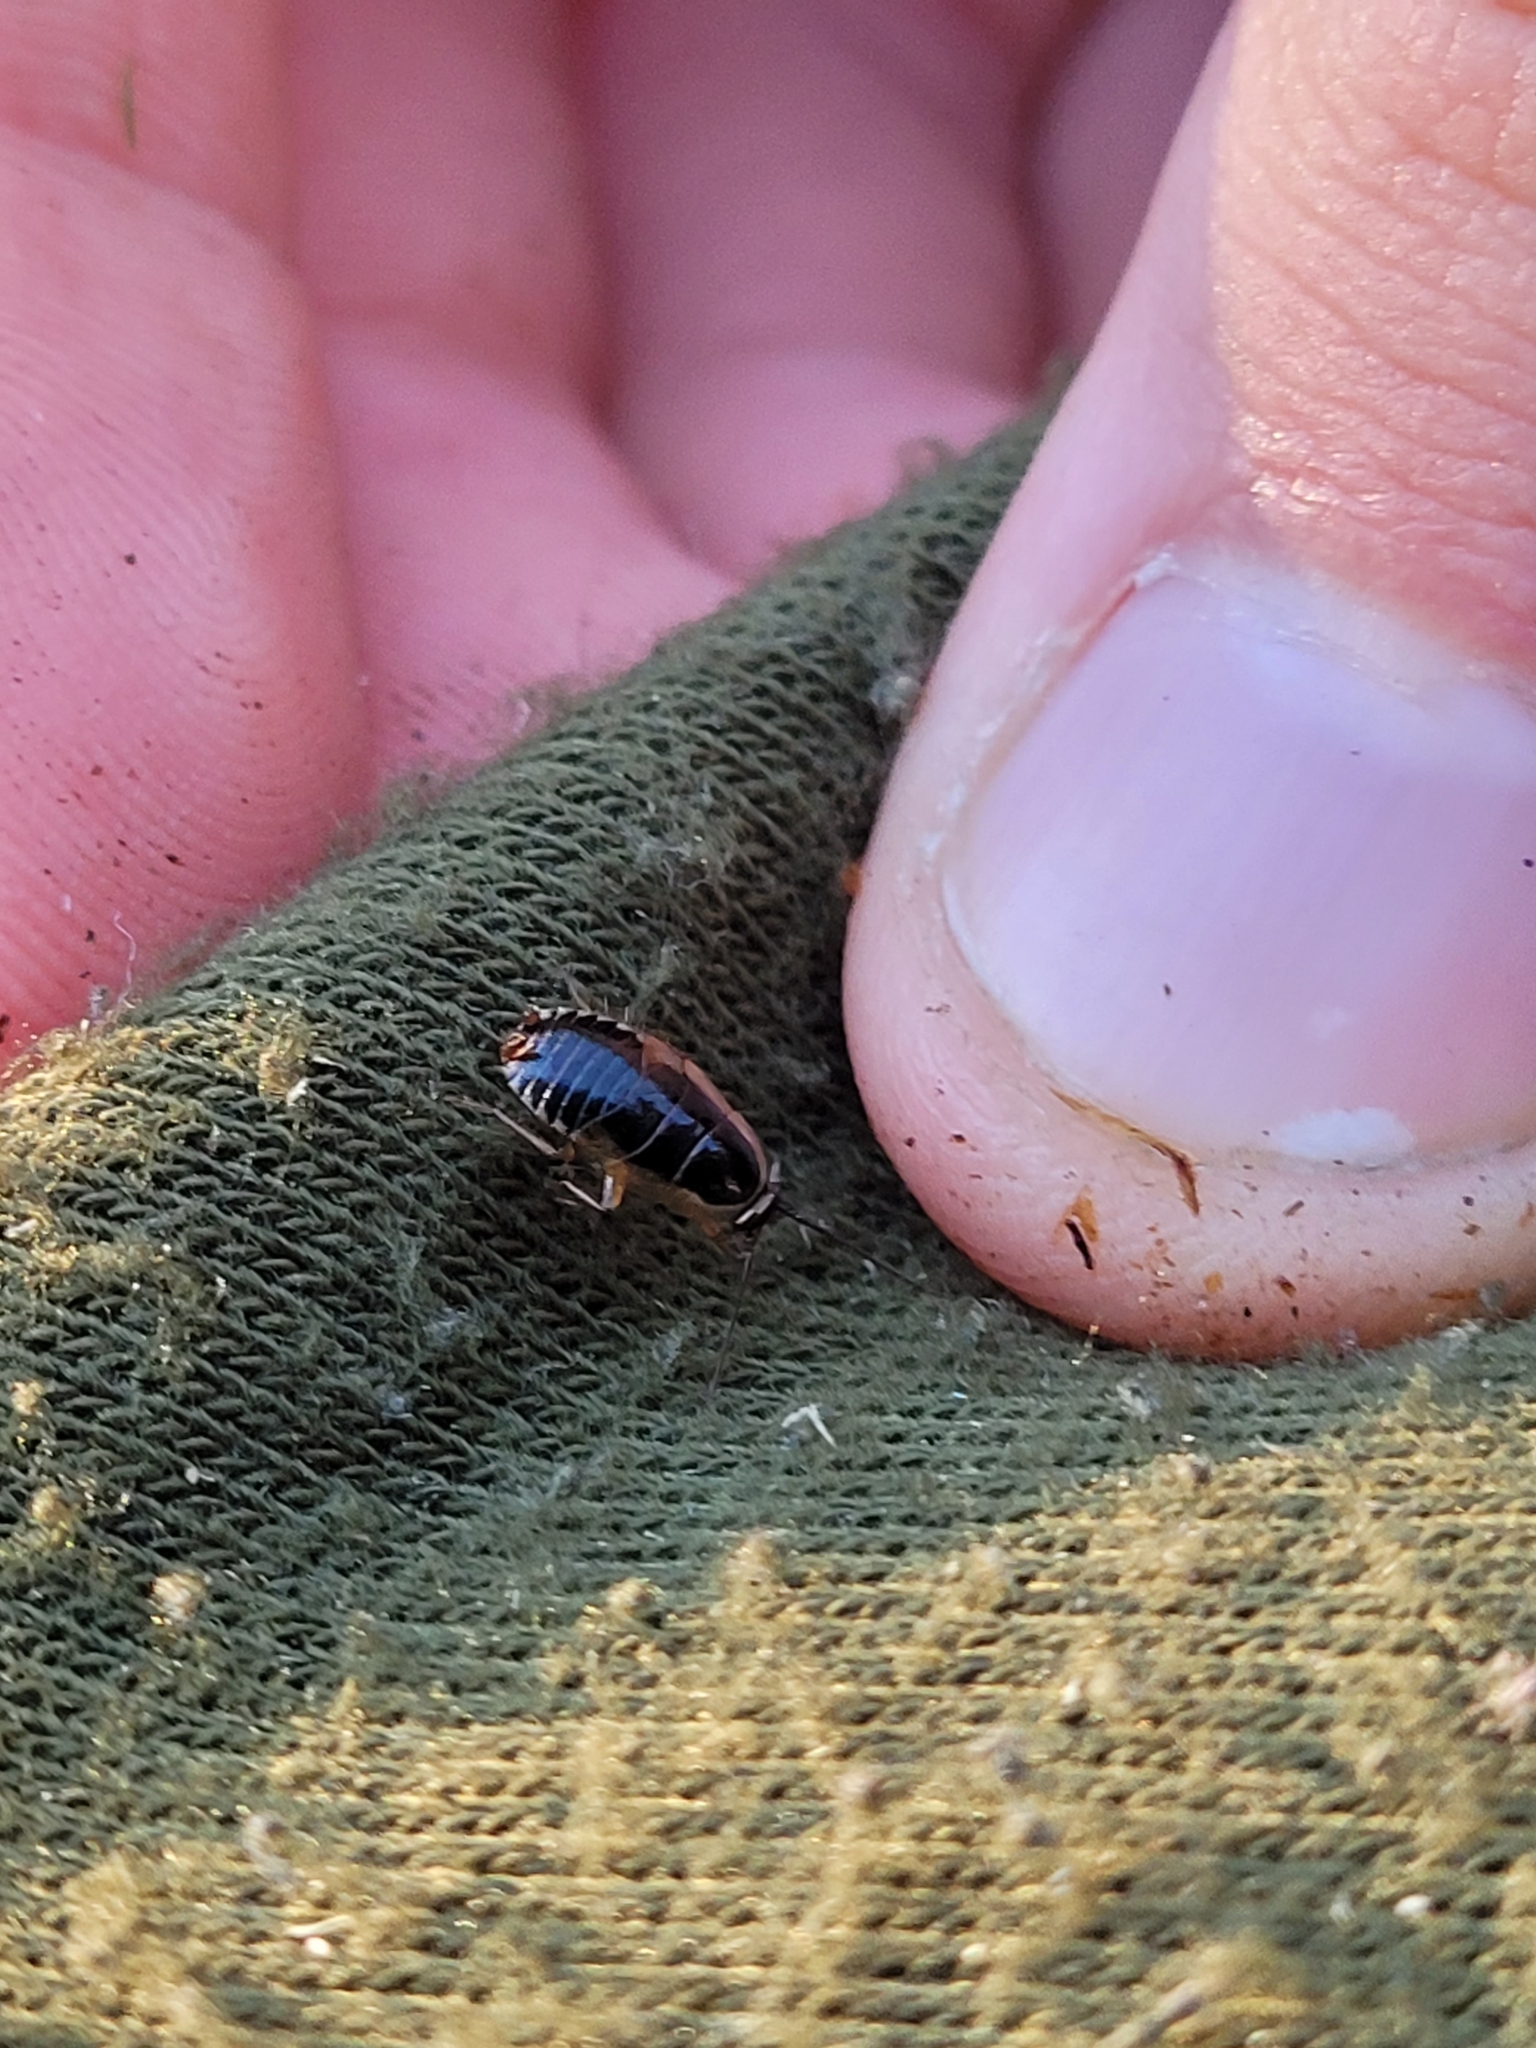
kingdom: Animalia
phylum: Arthropoda
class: Insecta
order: Blattodea
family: Ectobiidae
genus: Ectobius
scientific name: Ectobius sylvestris
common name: Forest cockroach
